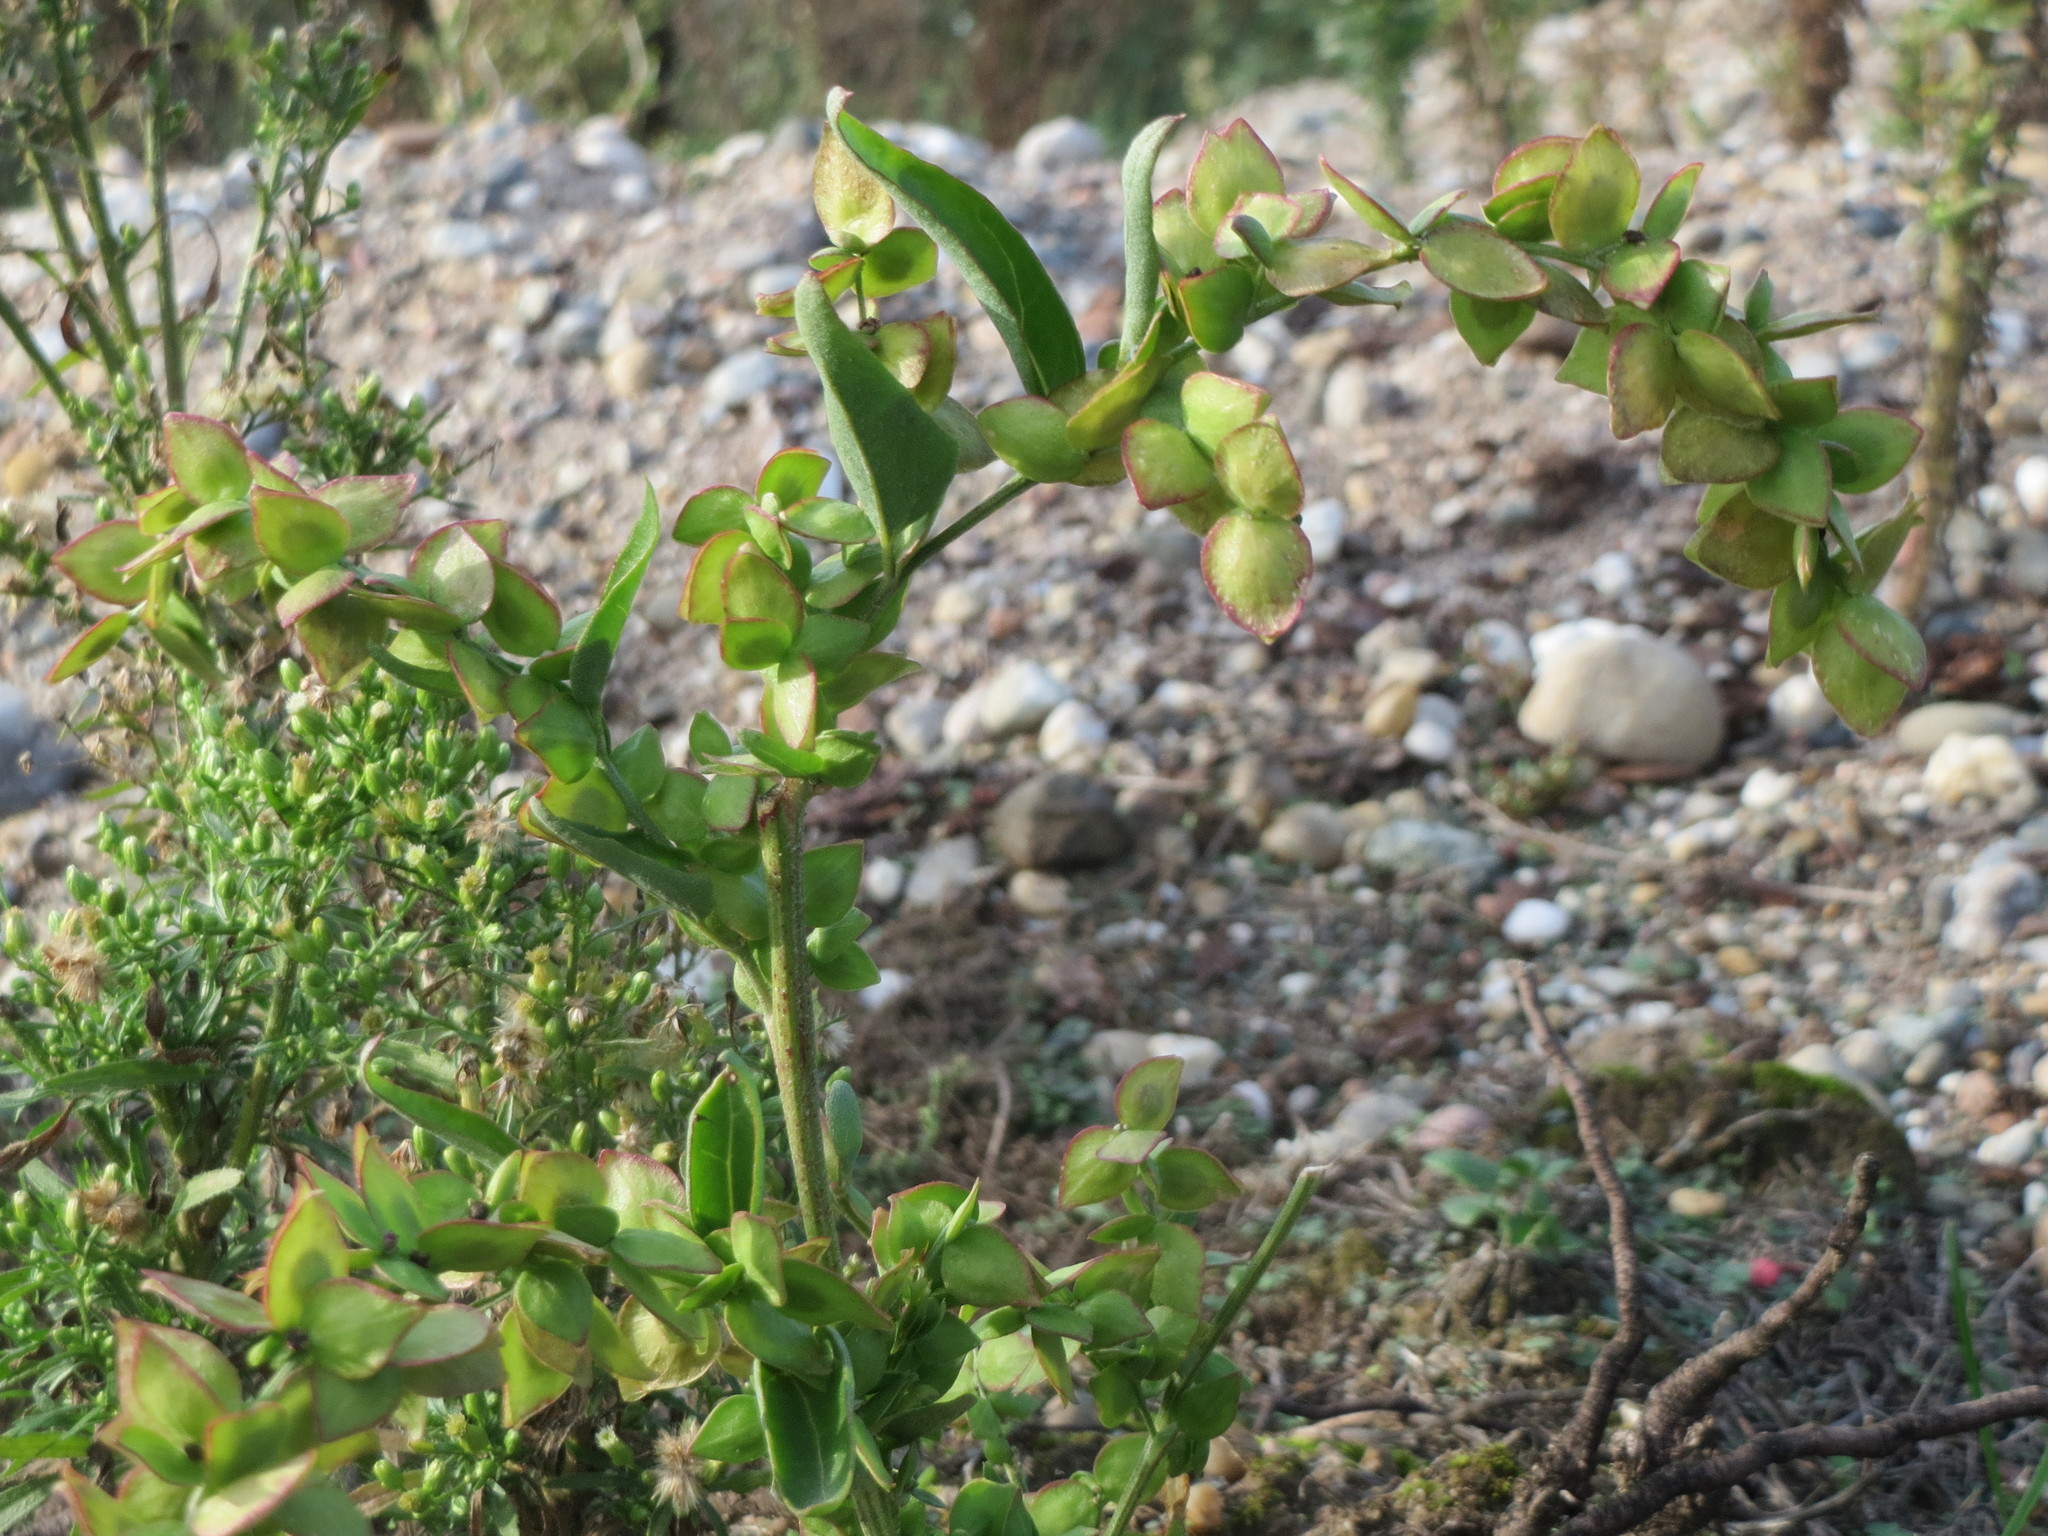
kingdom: Plantae
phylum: Tracheophyta
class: Magnoliopsida
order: Caryophyllales
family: Amaranthaceae
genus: Atriplex
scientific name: Atriplex sagittata
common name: Purple orache
